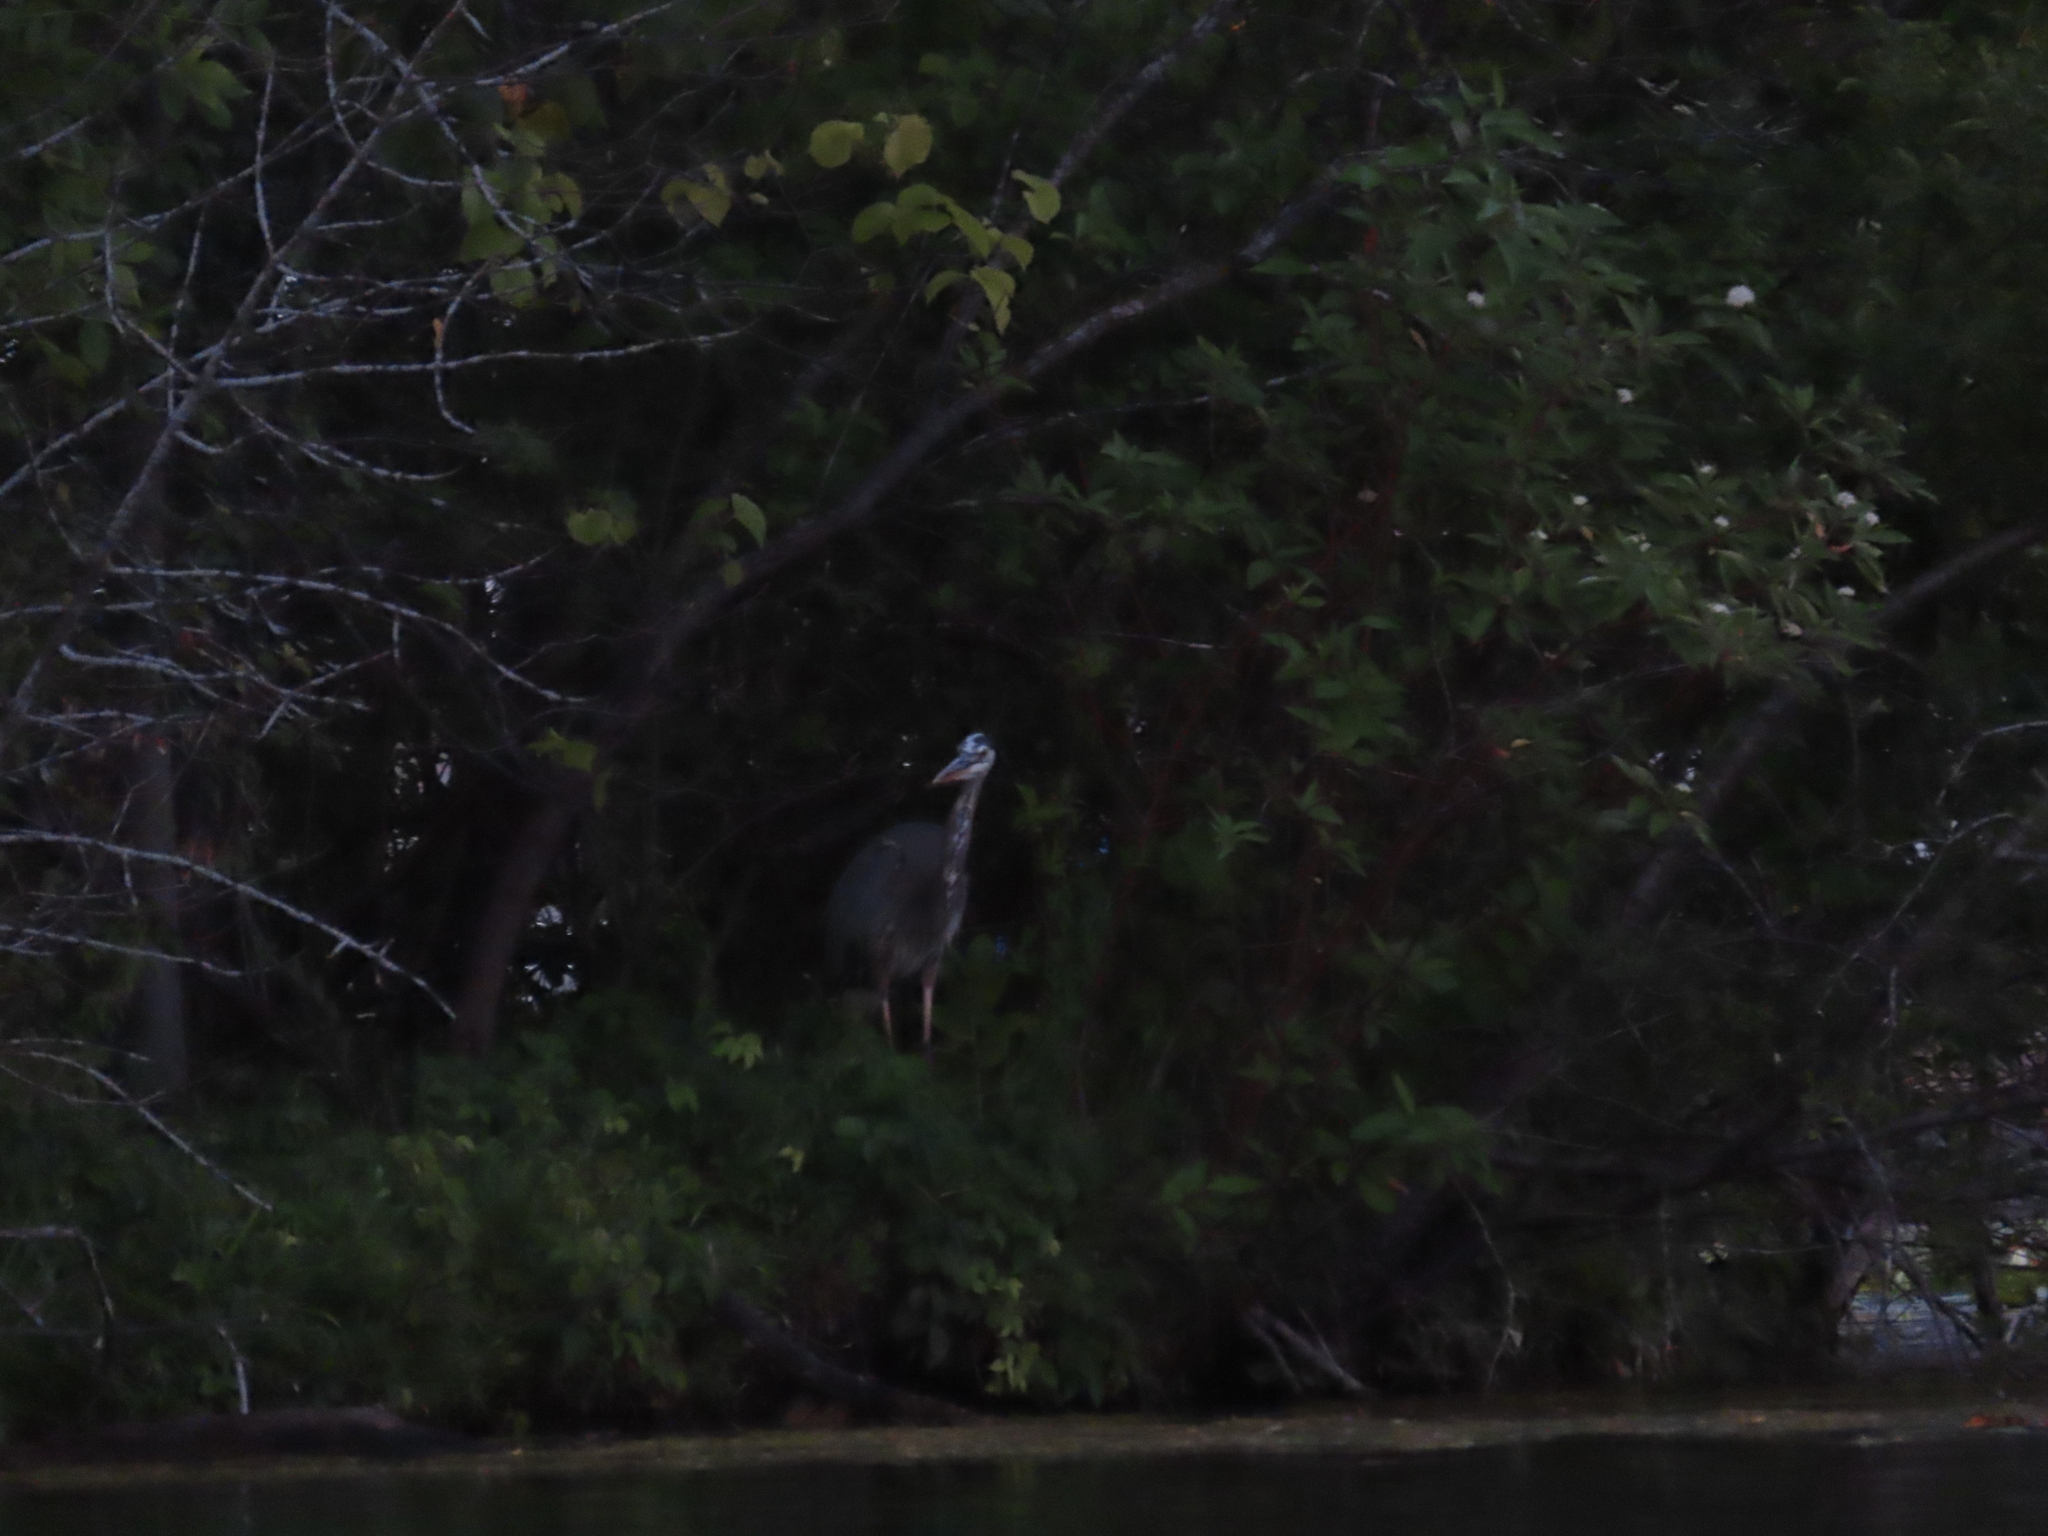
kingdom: Animalia
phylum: Chordata
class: Aves
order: Pelecaniformes
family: Ardeidae
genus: Ardea
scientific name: Ardea herodias
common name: Great blue heron
